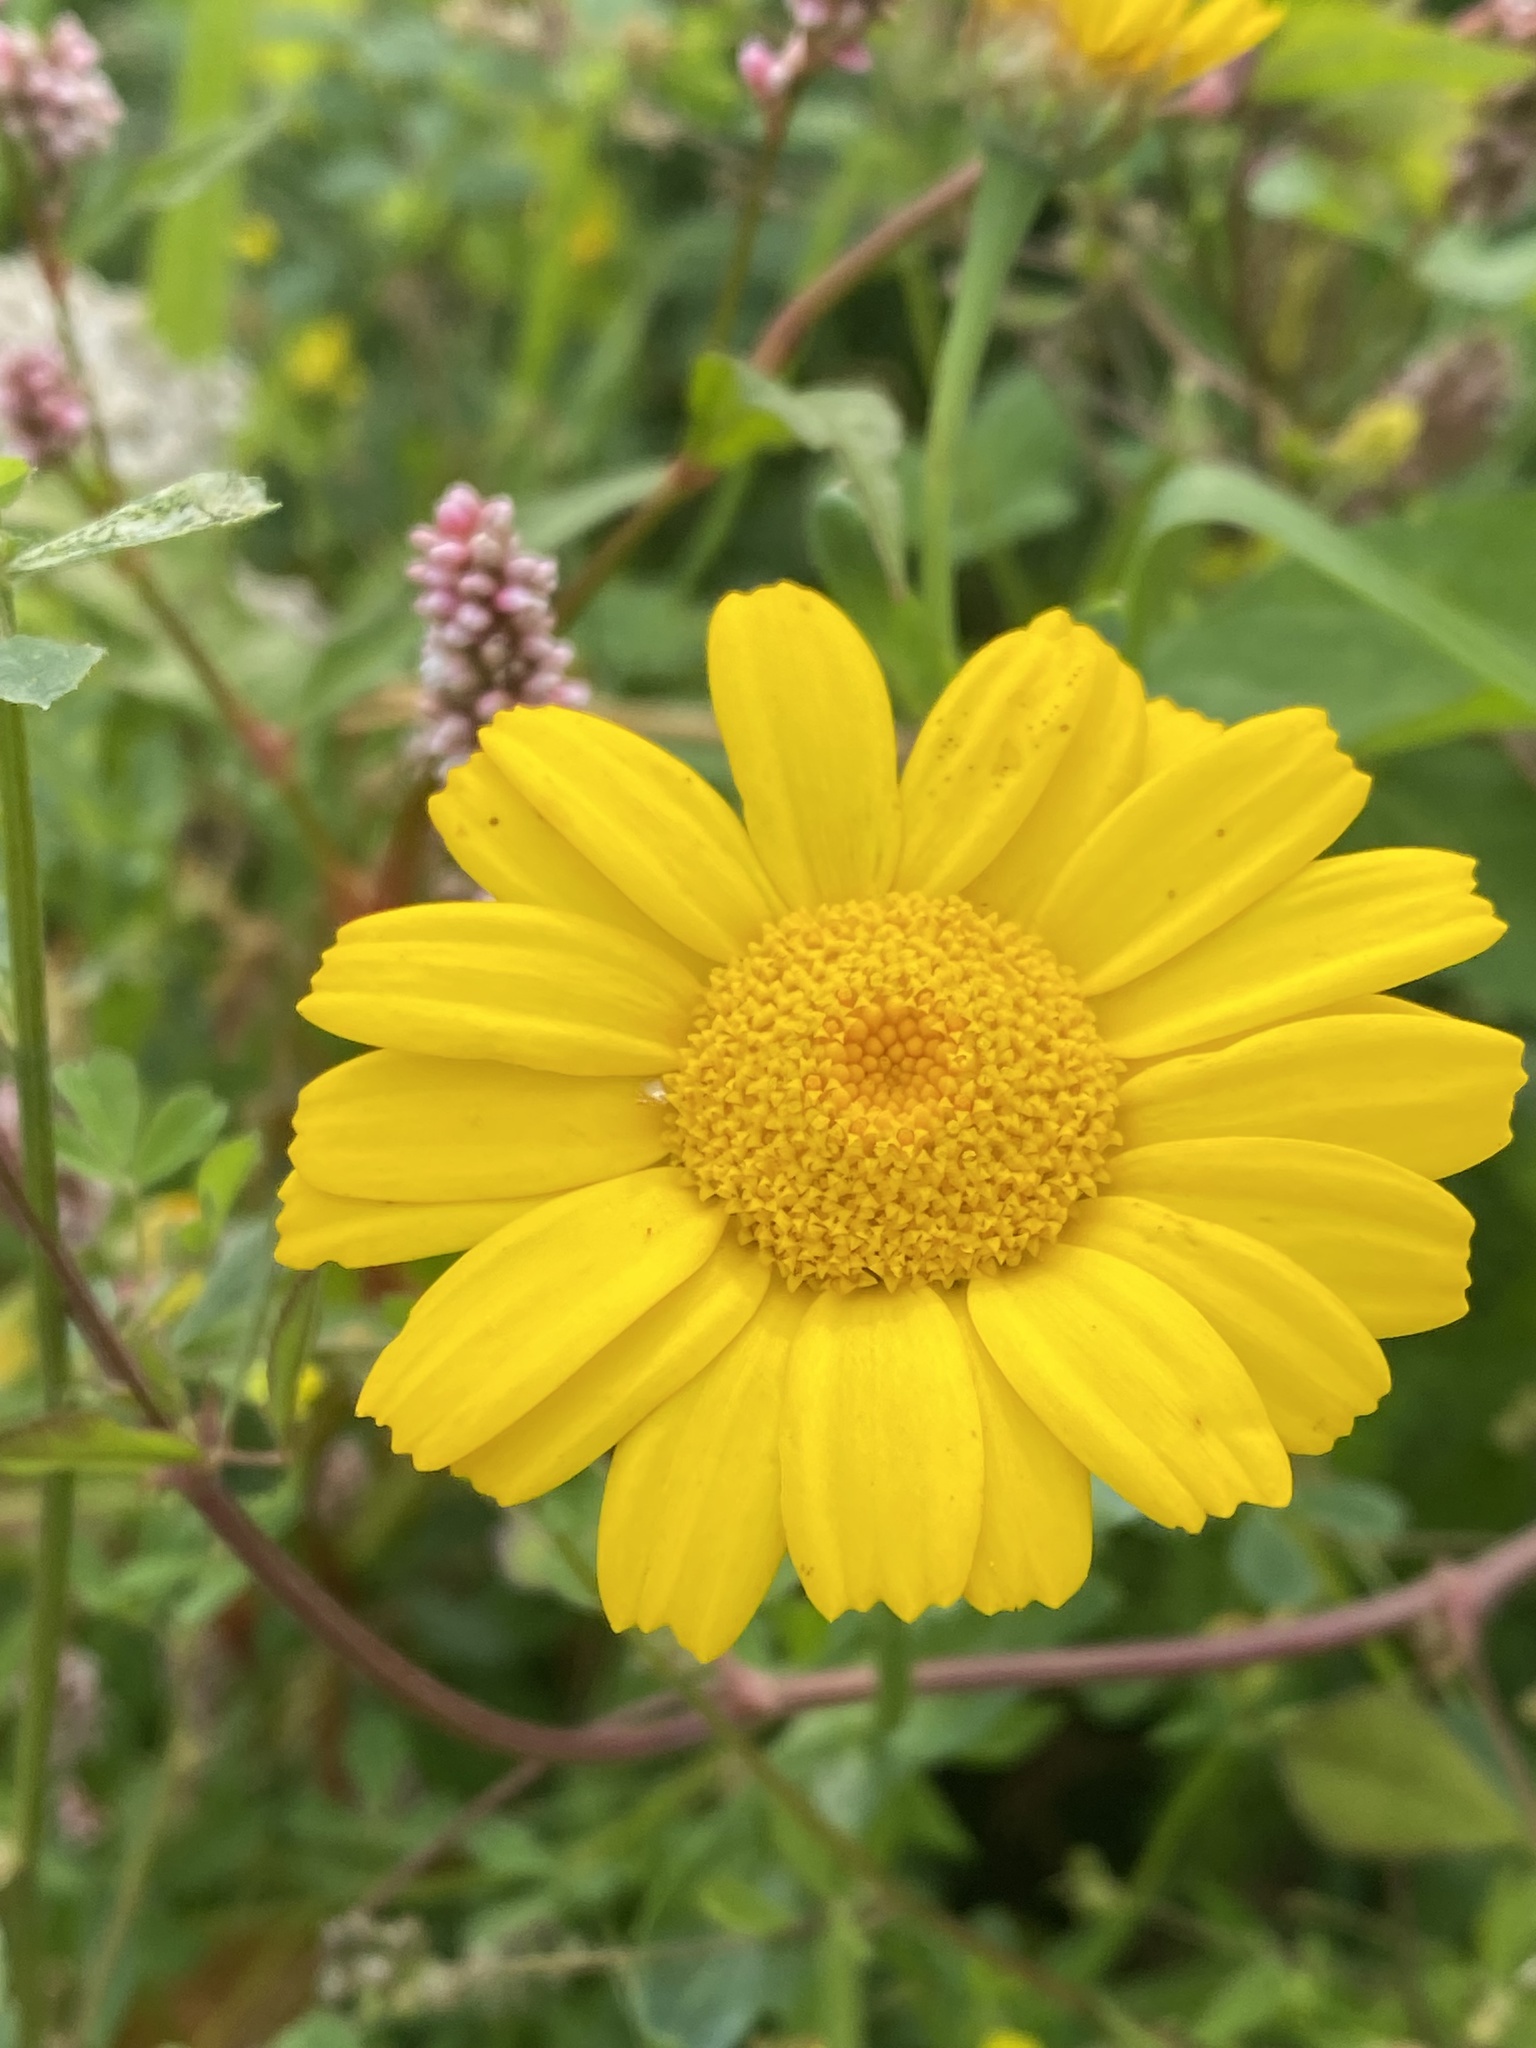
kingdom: Plantae
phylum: Tracheophyta
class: Magnoliopsida
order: Asterales
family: Asteraceae
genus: Glebionis
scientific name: Glebionis segetum
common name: Corndaisy
